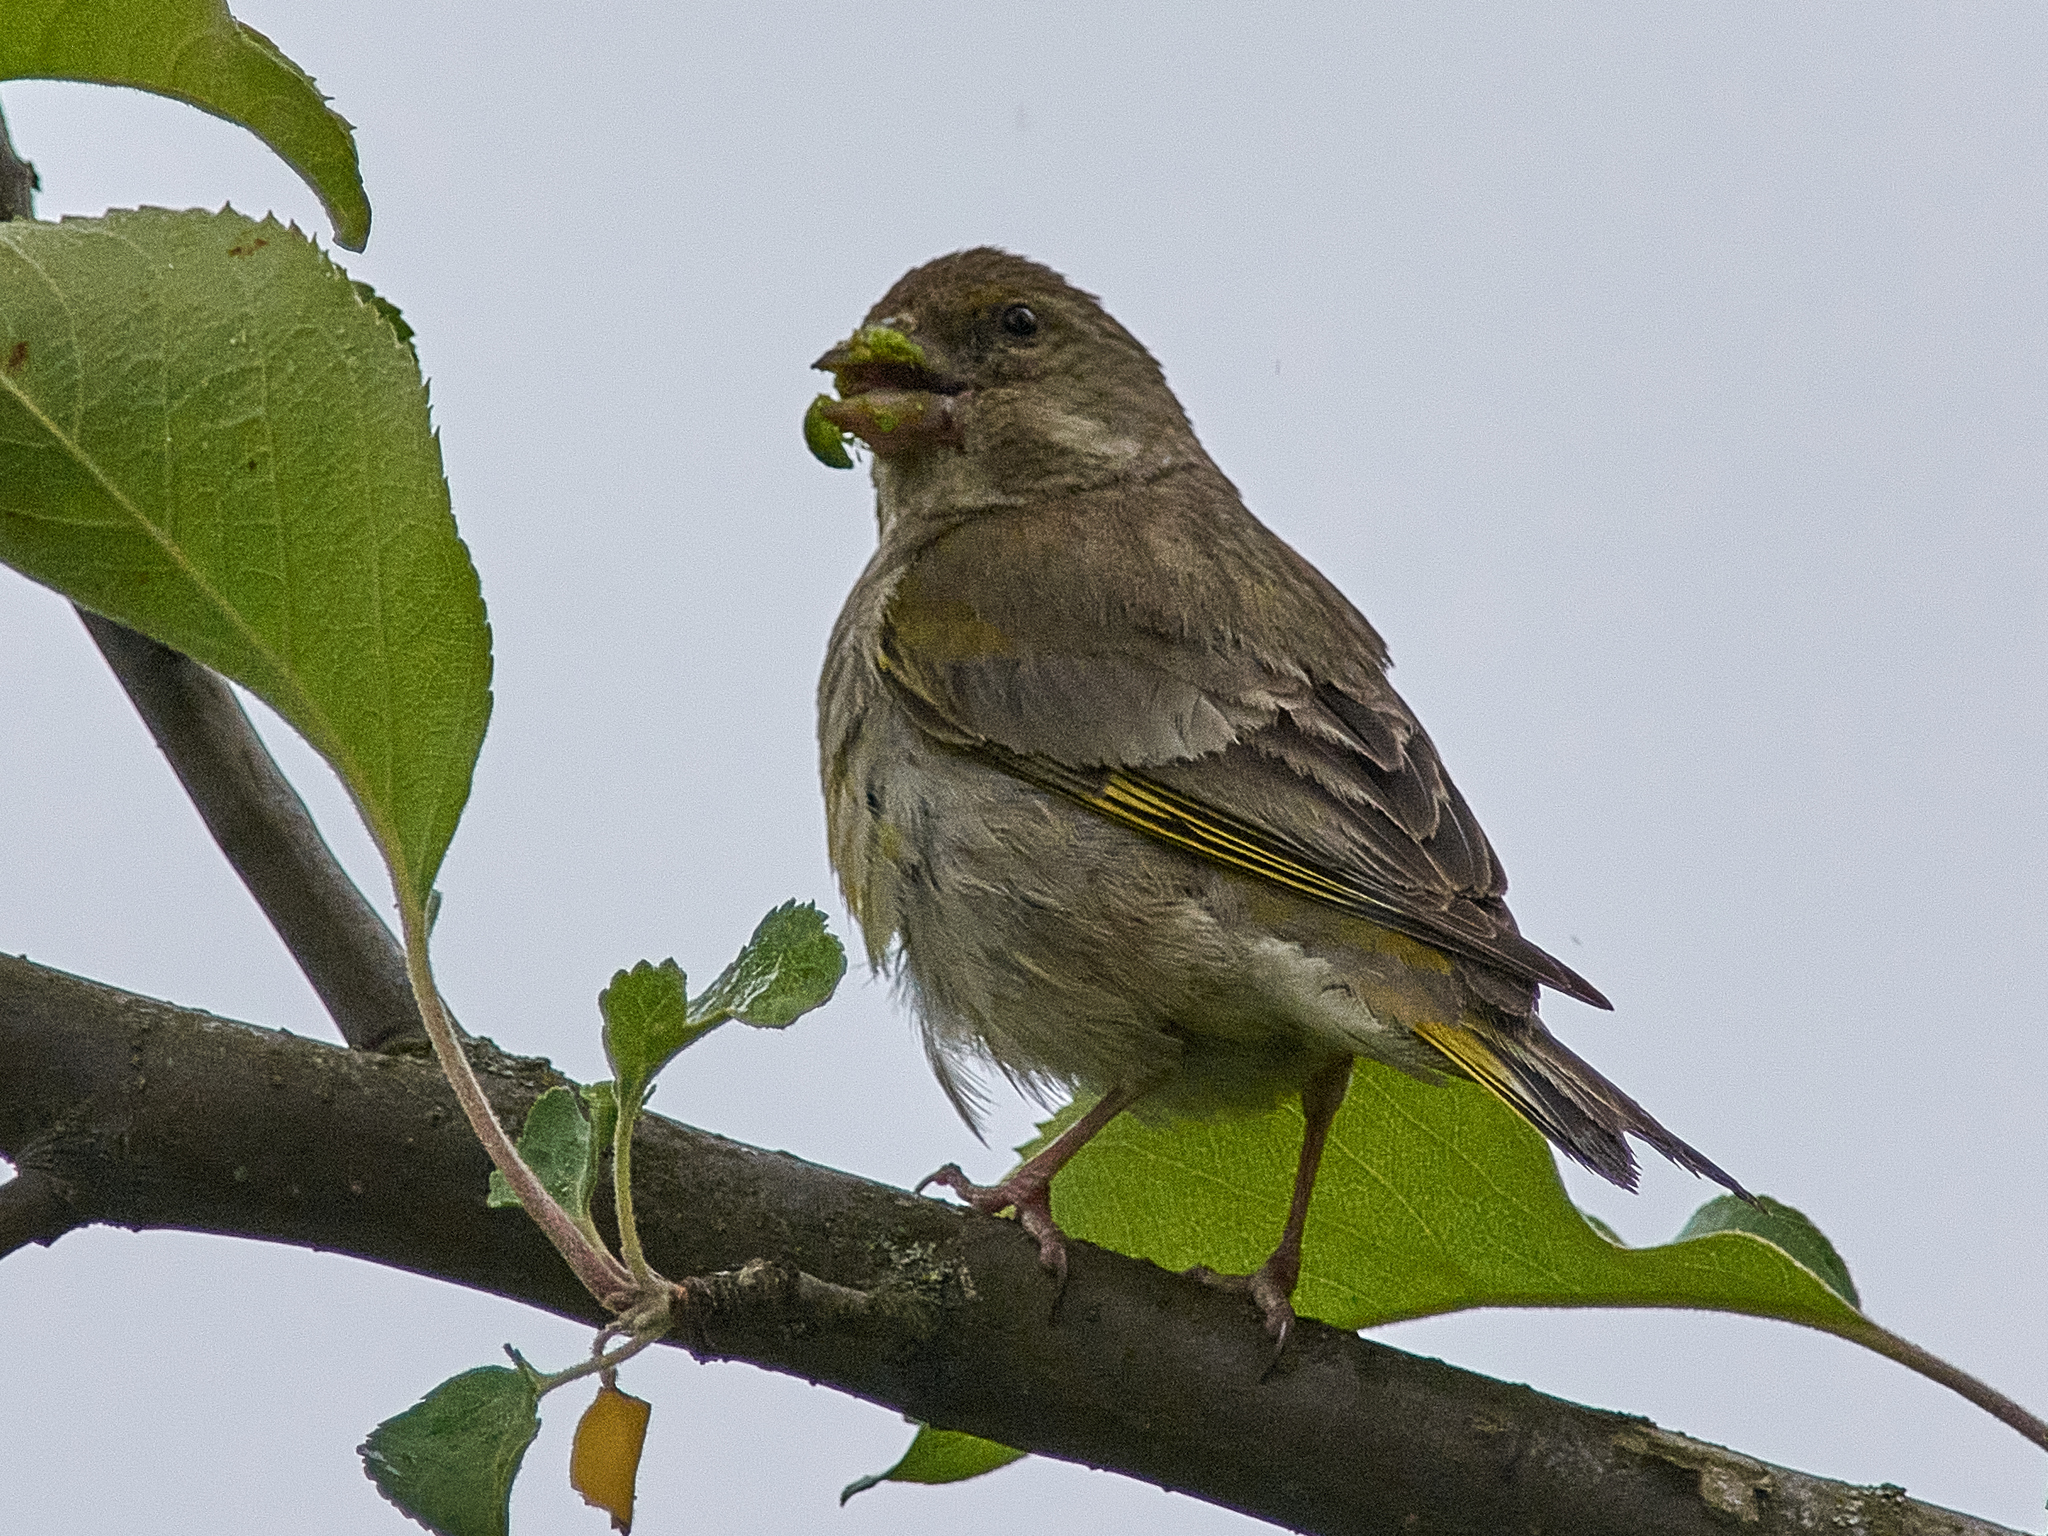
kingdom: Plantae
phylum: Tracheophyta
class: Liliopsida
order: Poales
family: Poaceae
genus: Chloris
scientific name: Chloris chloris
